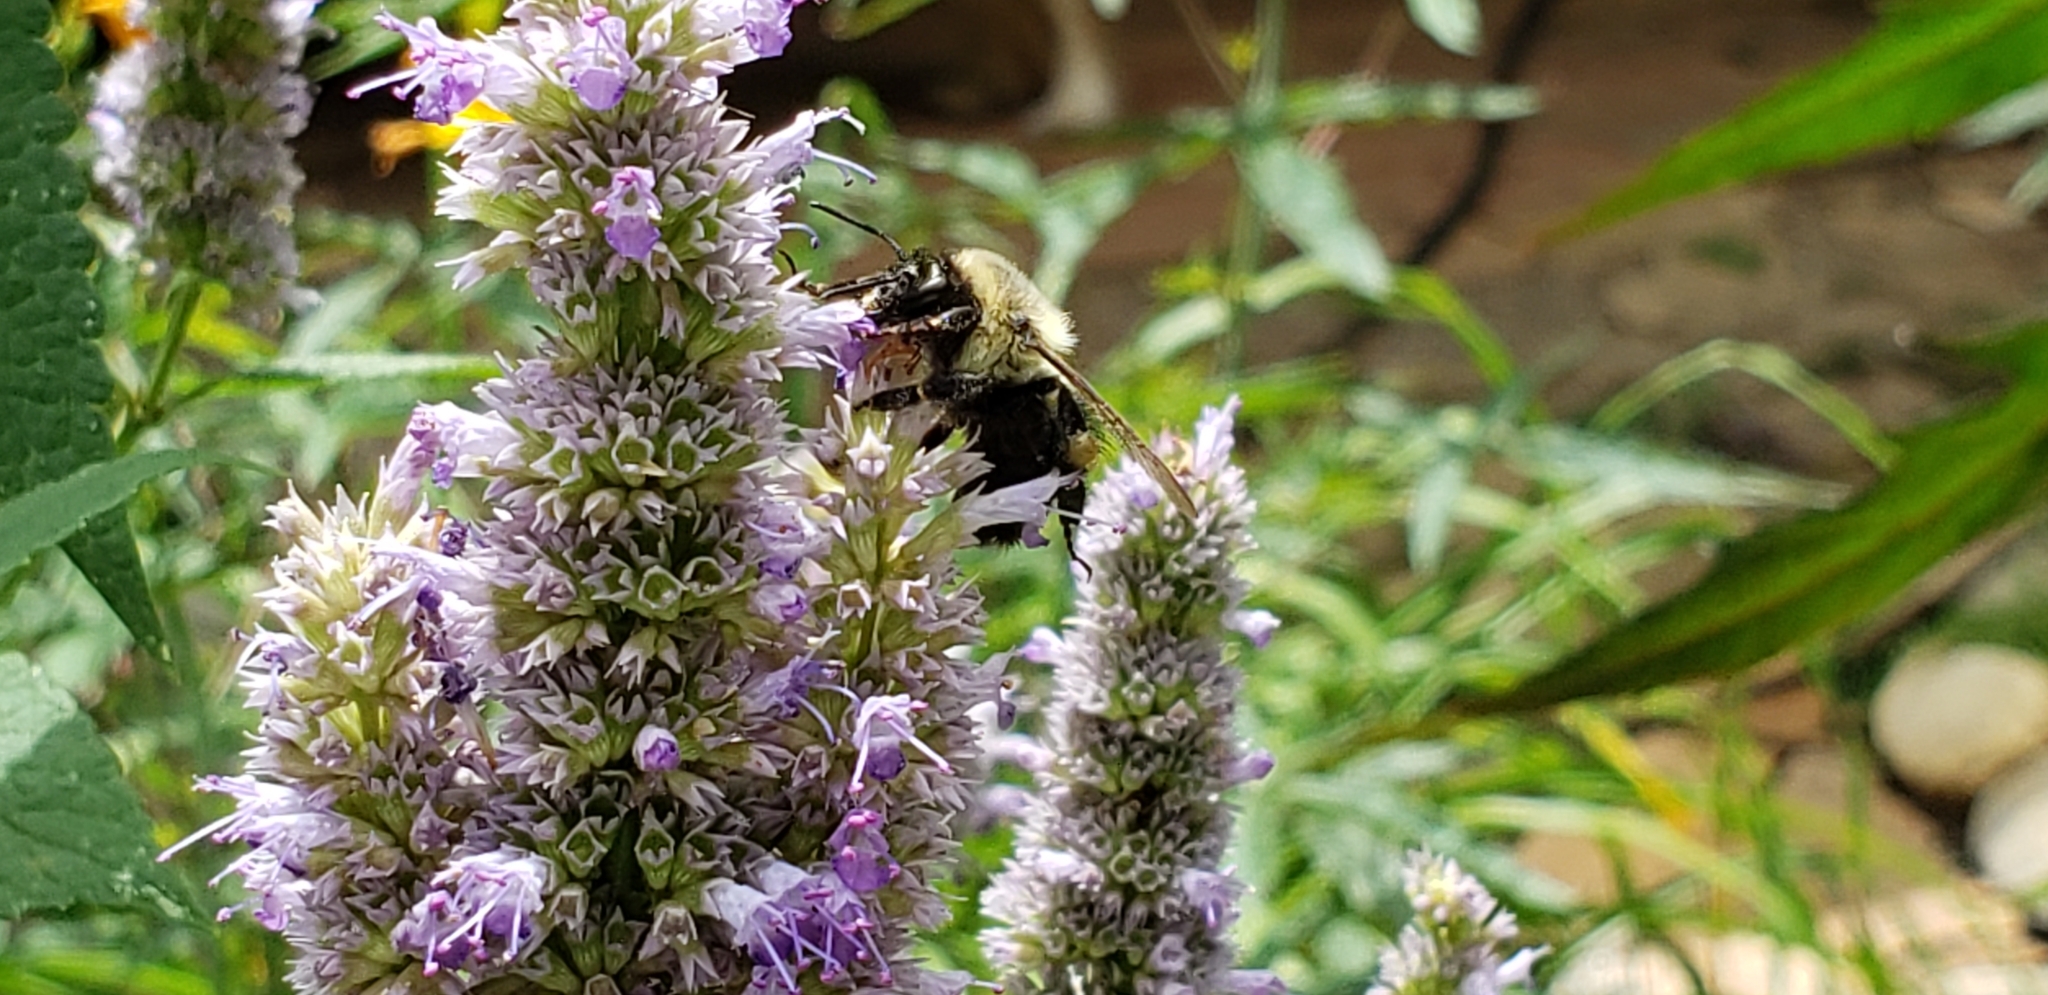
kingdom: Animalia
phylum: Arthropoda
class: Insecta
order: Hymenoptera
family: Apidae
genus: Bombus
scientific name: Bombus impatiens
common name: Common eastern bumble bee
